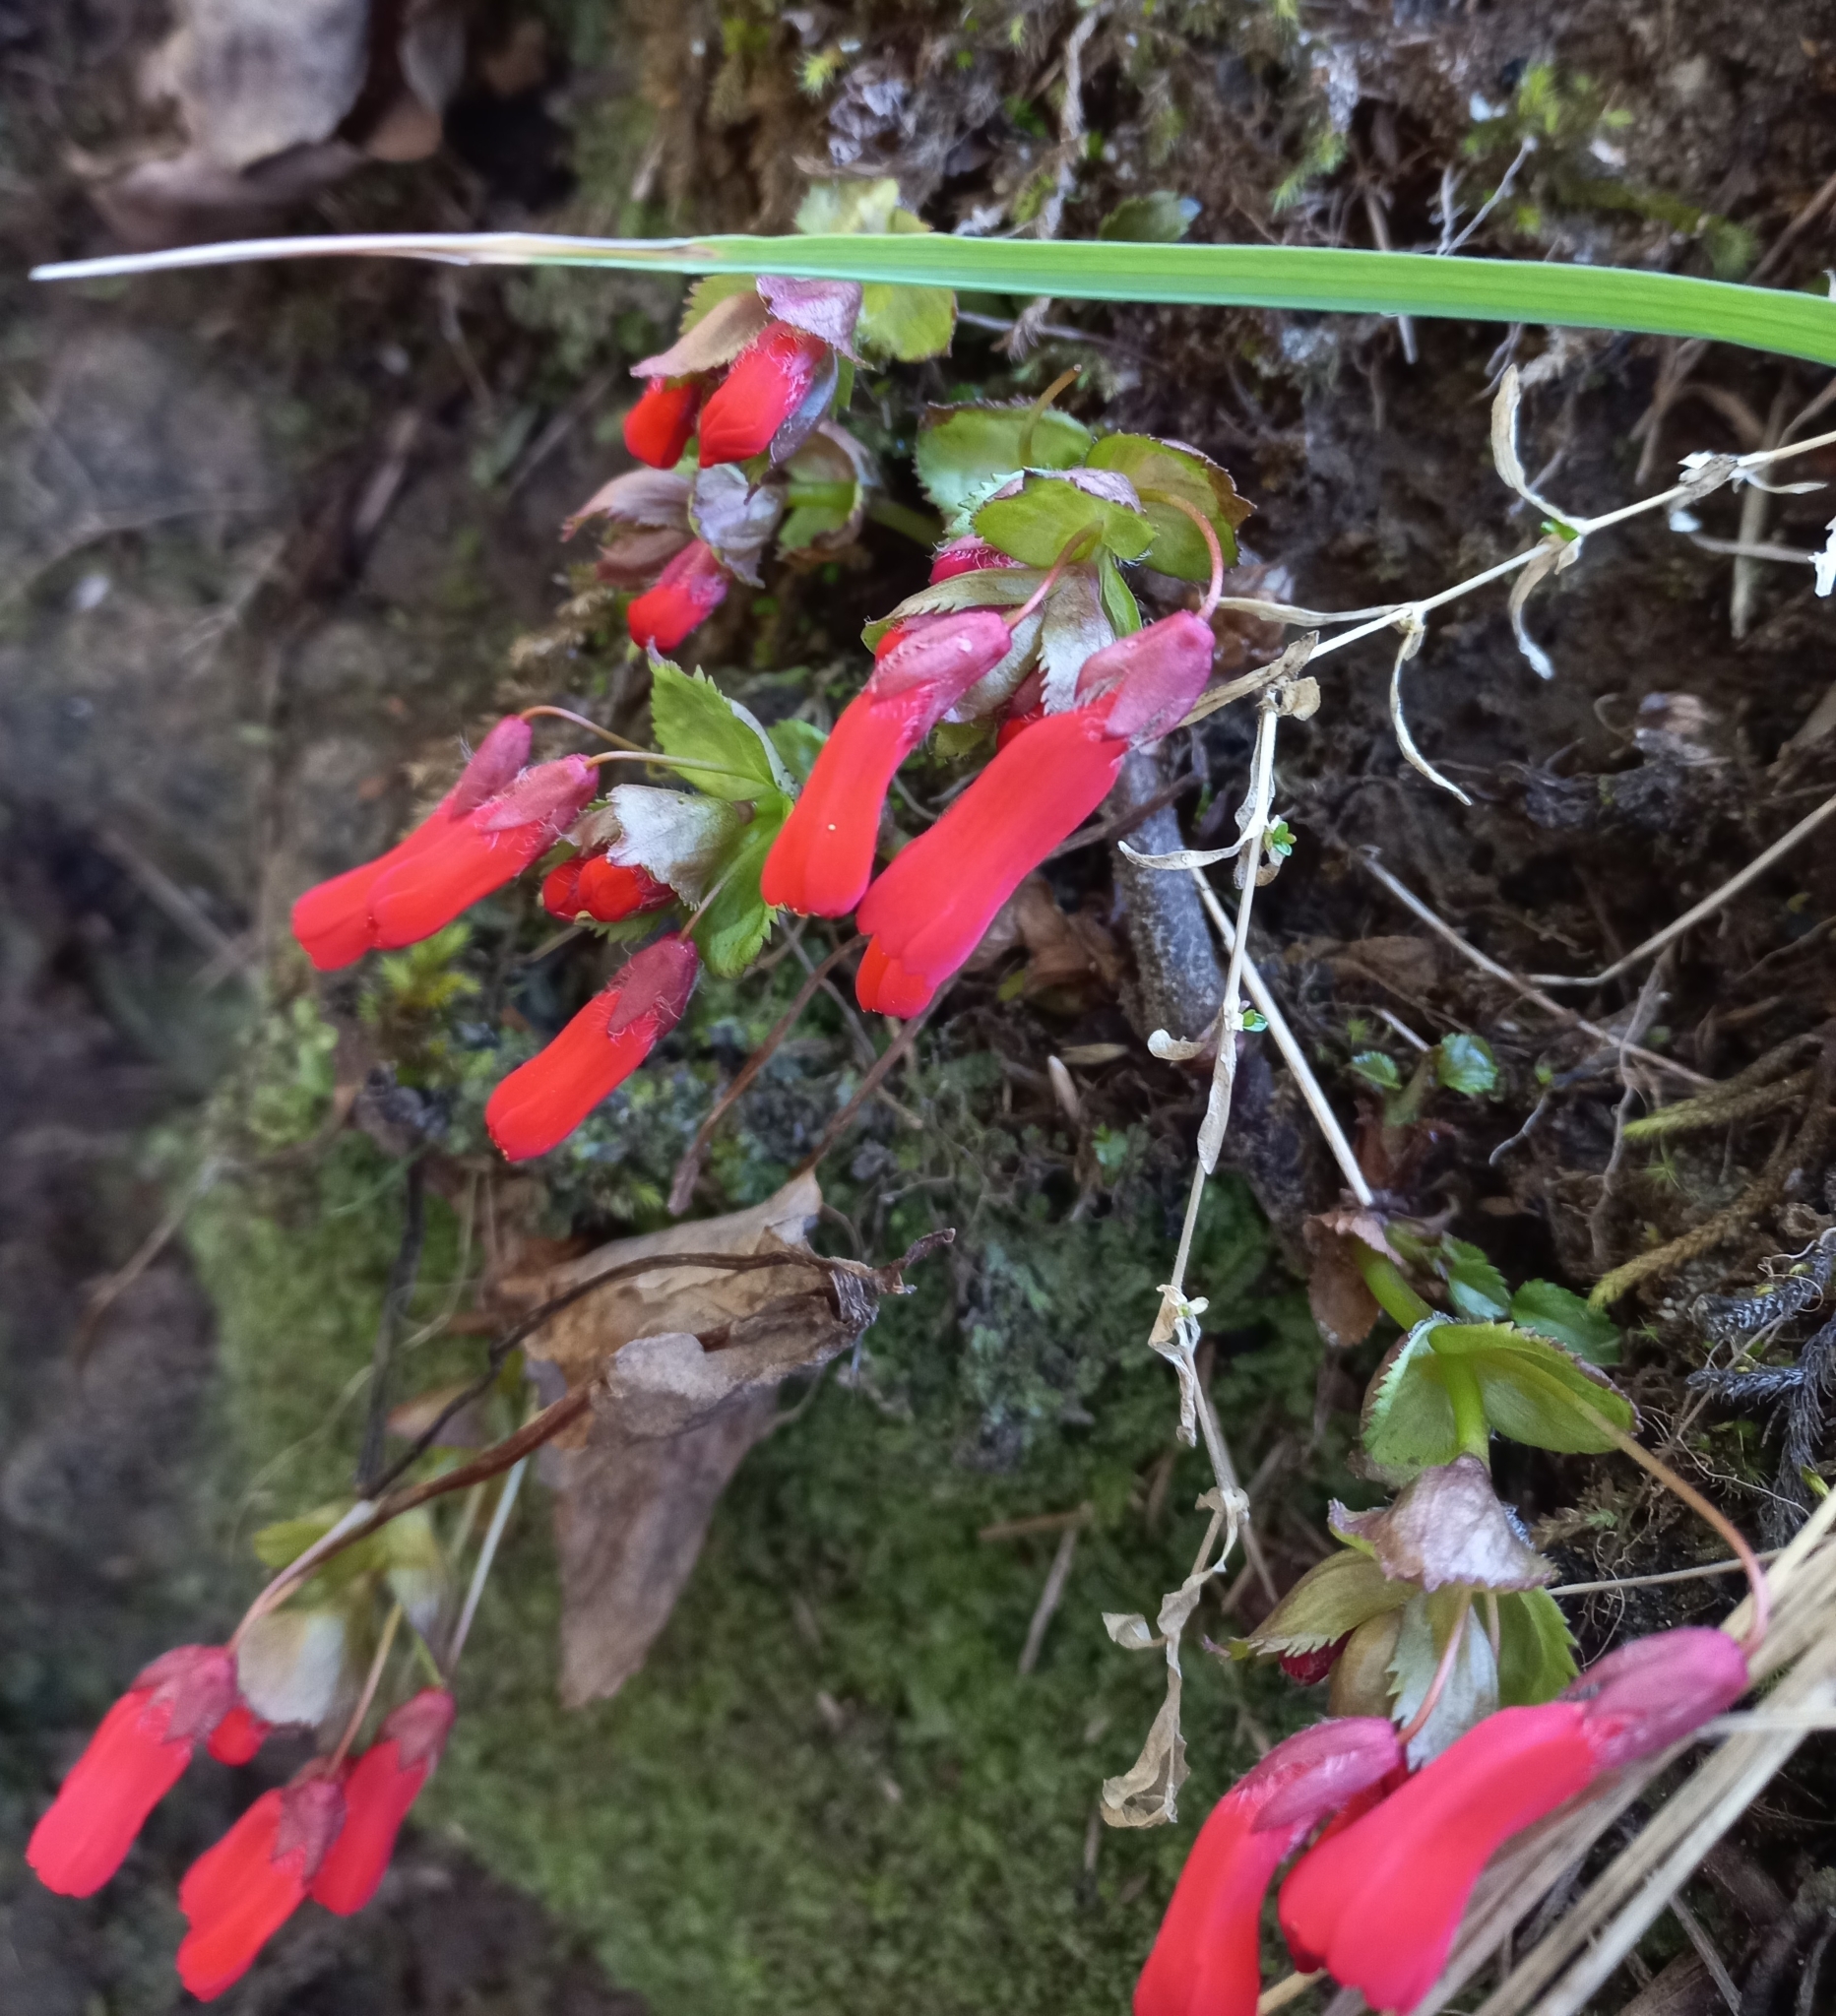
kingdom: Plantae
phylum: Tracheophyta
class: Magnoliopsida
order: Lamiales
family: Plantaginaceae
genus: Ourisia
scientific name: Ourisia ruellioides
